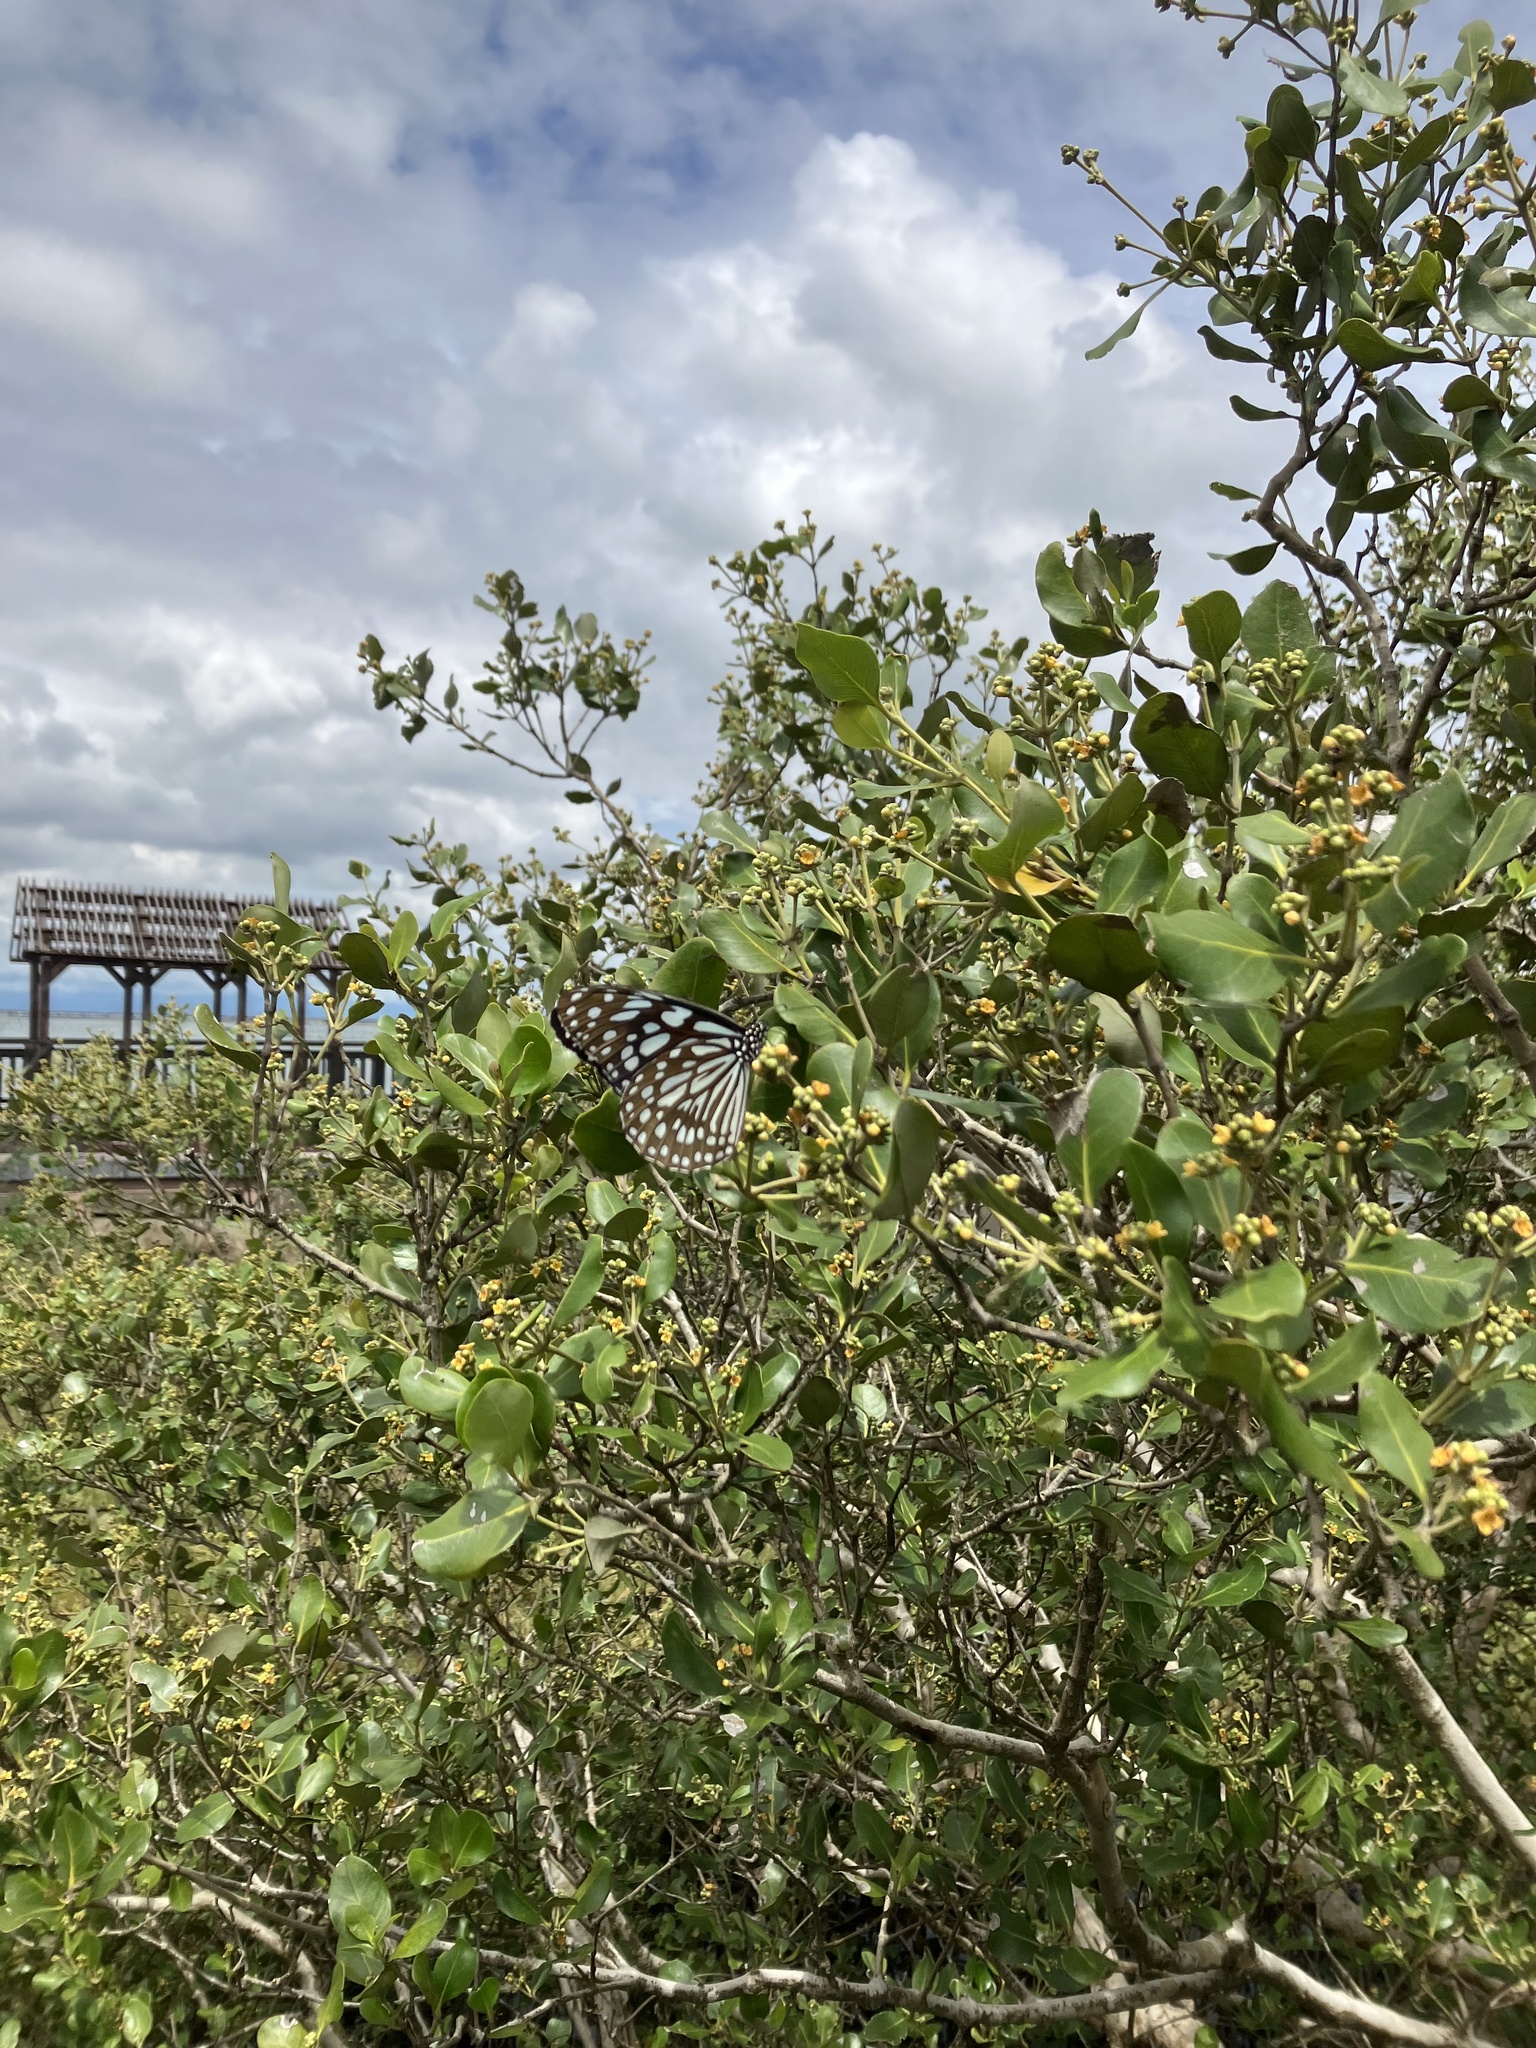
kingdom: Animalia
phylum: Arthropoda
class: Insecta
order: Lepidoptera
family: Nymphalidae
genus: Tirumala
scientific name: Tirumala limniace
